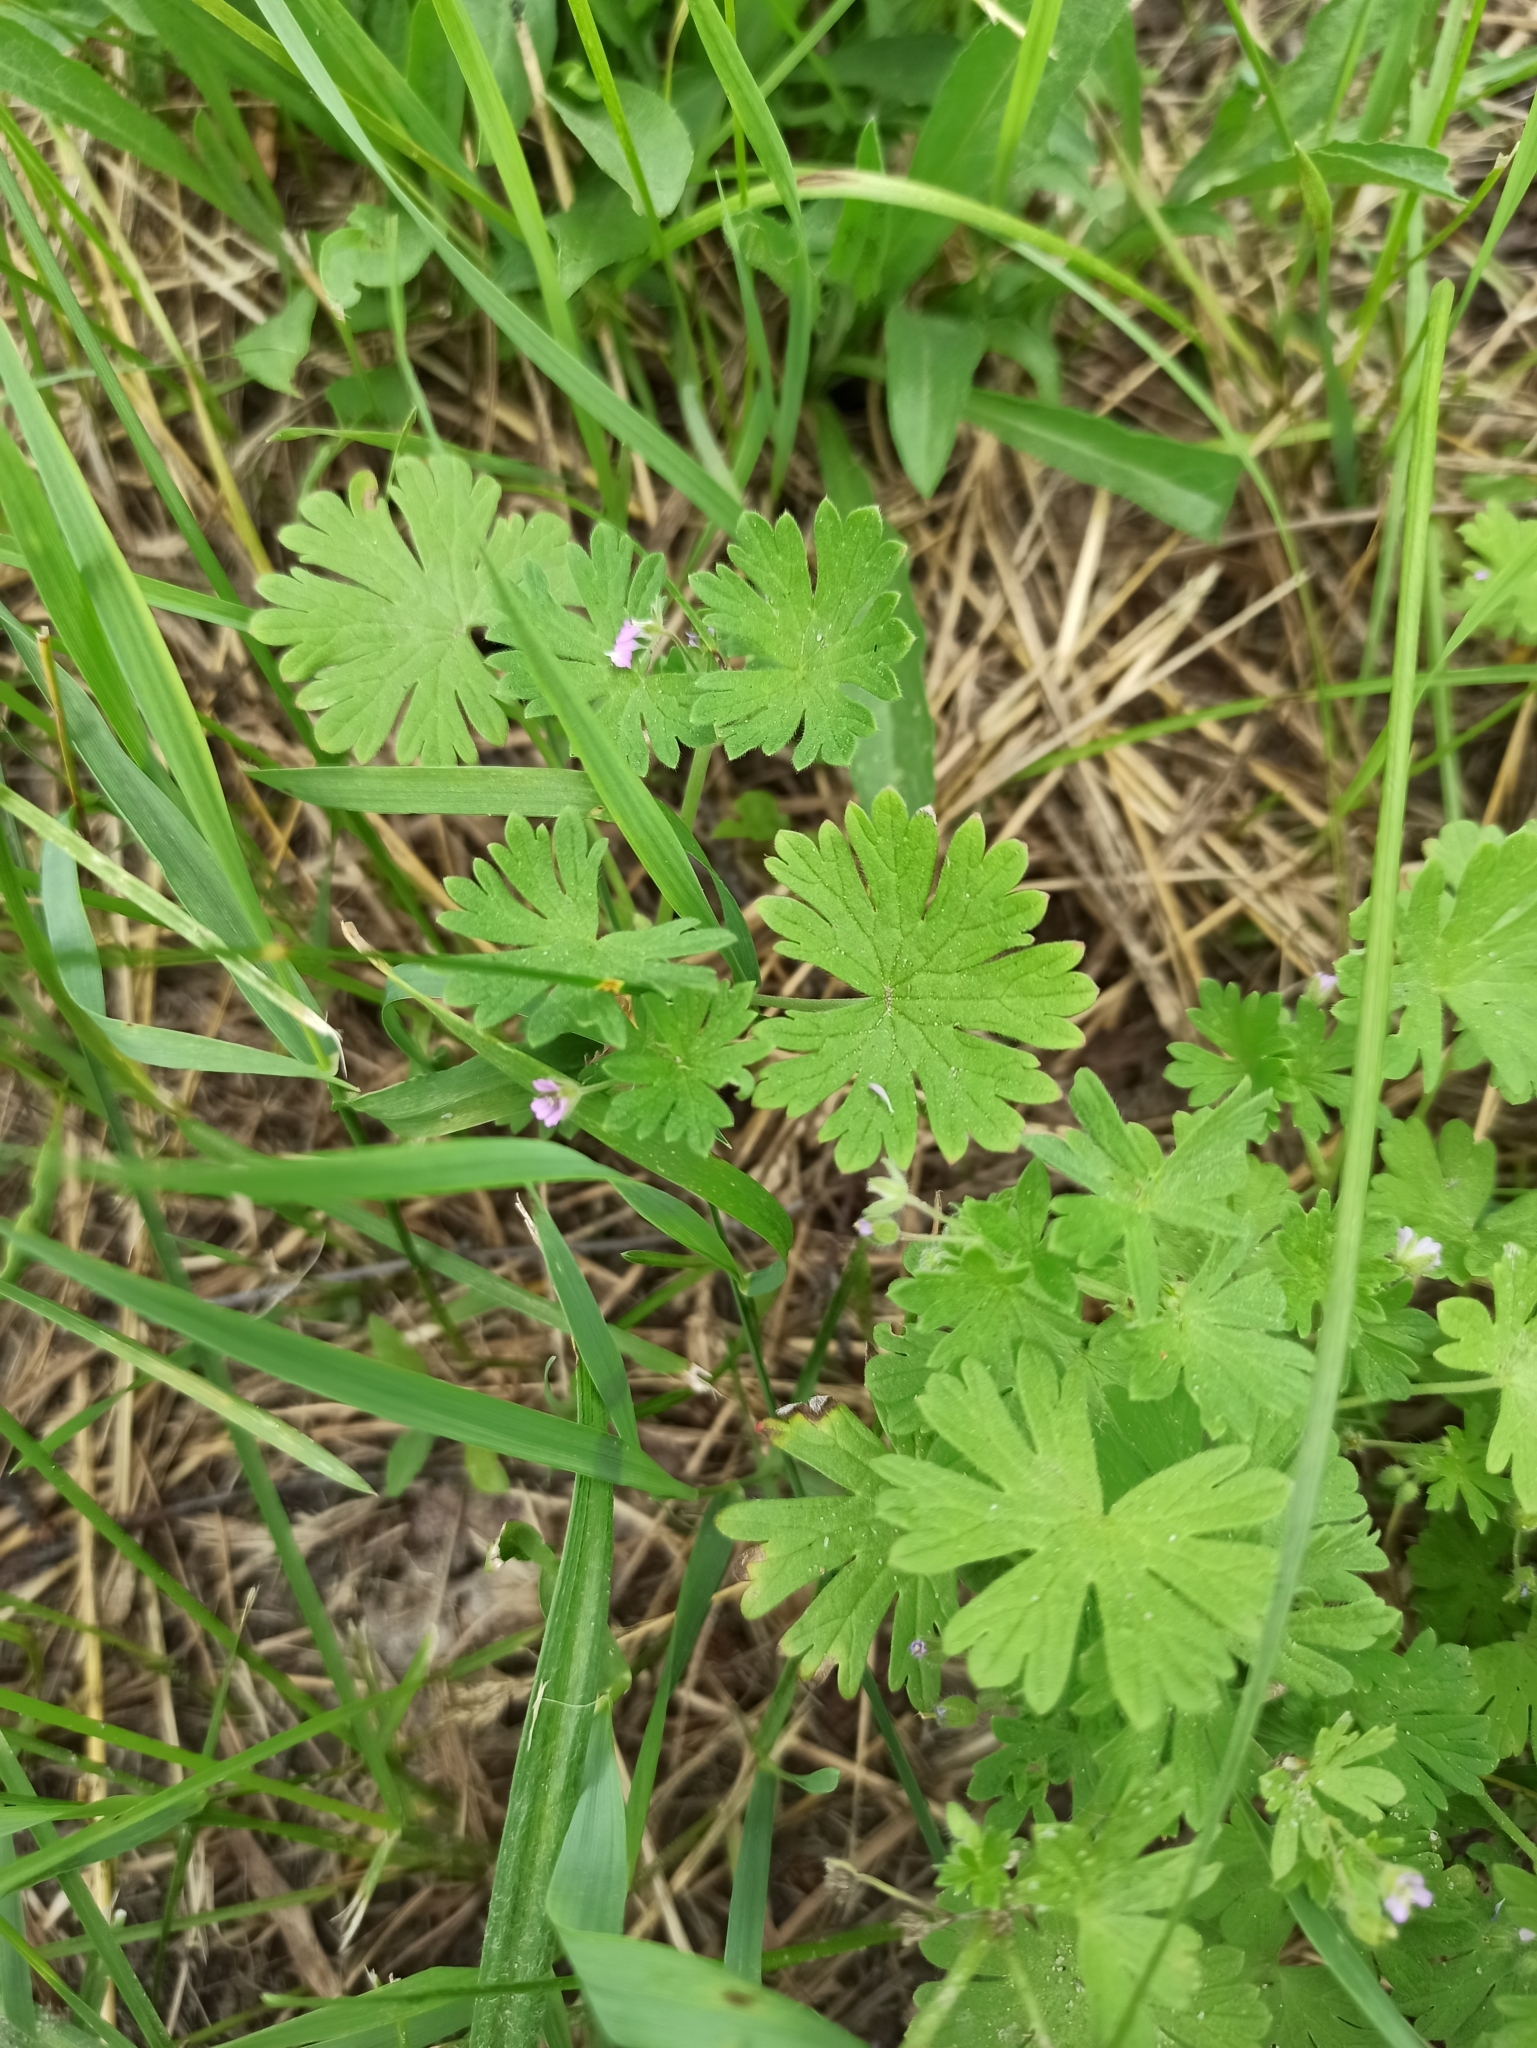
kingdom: Plantae
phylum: Tracheophyta
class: Magnoliopsida
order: Geraniales
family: Geraniaceae
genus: Geranium
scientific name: Geranium pusillum
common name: Small geranium
